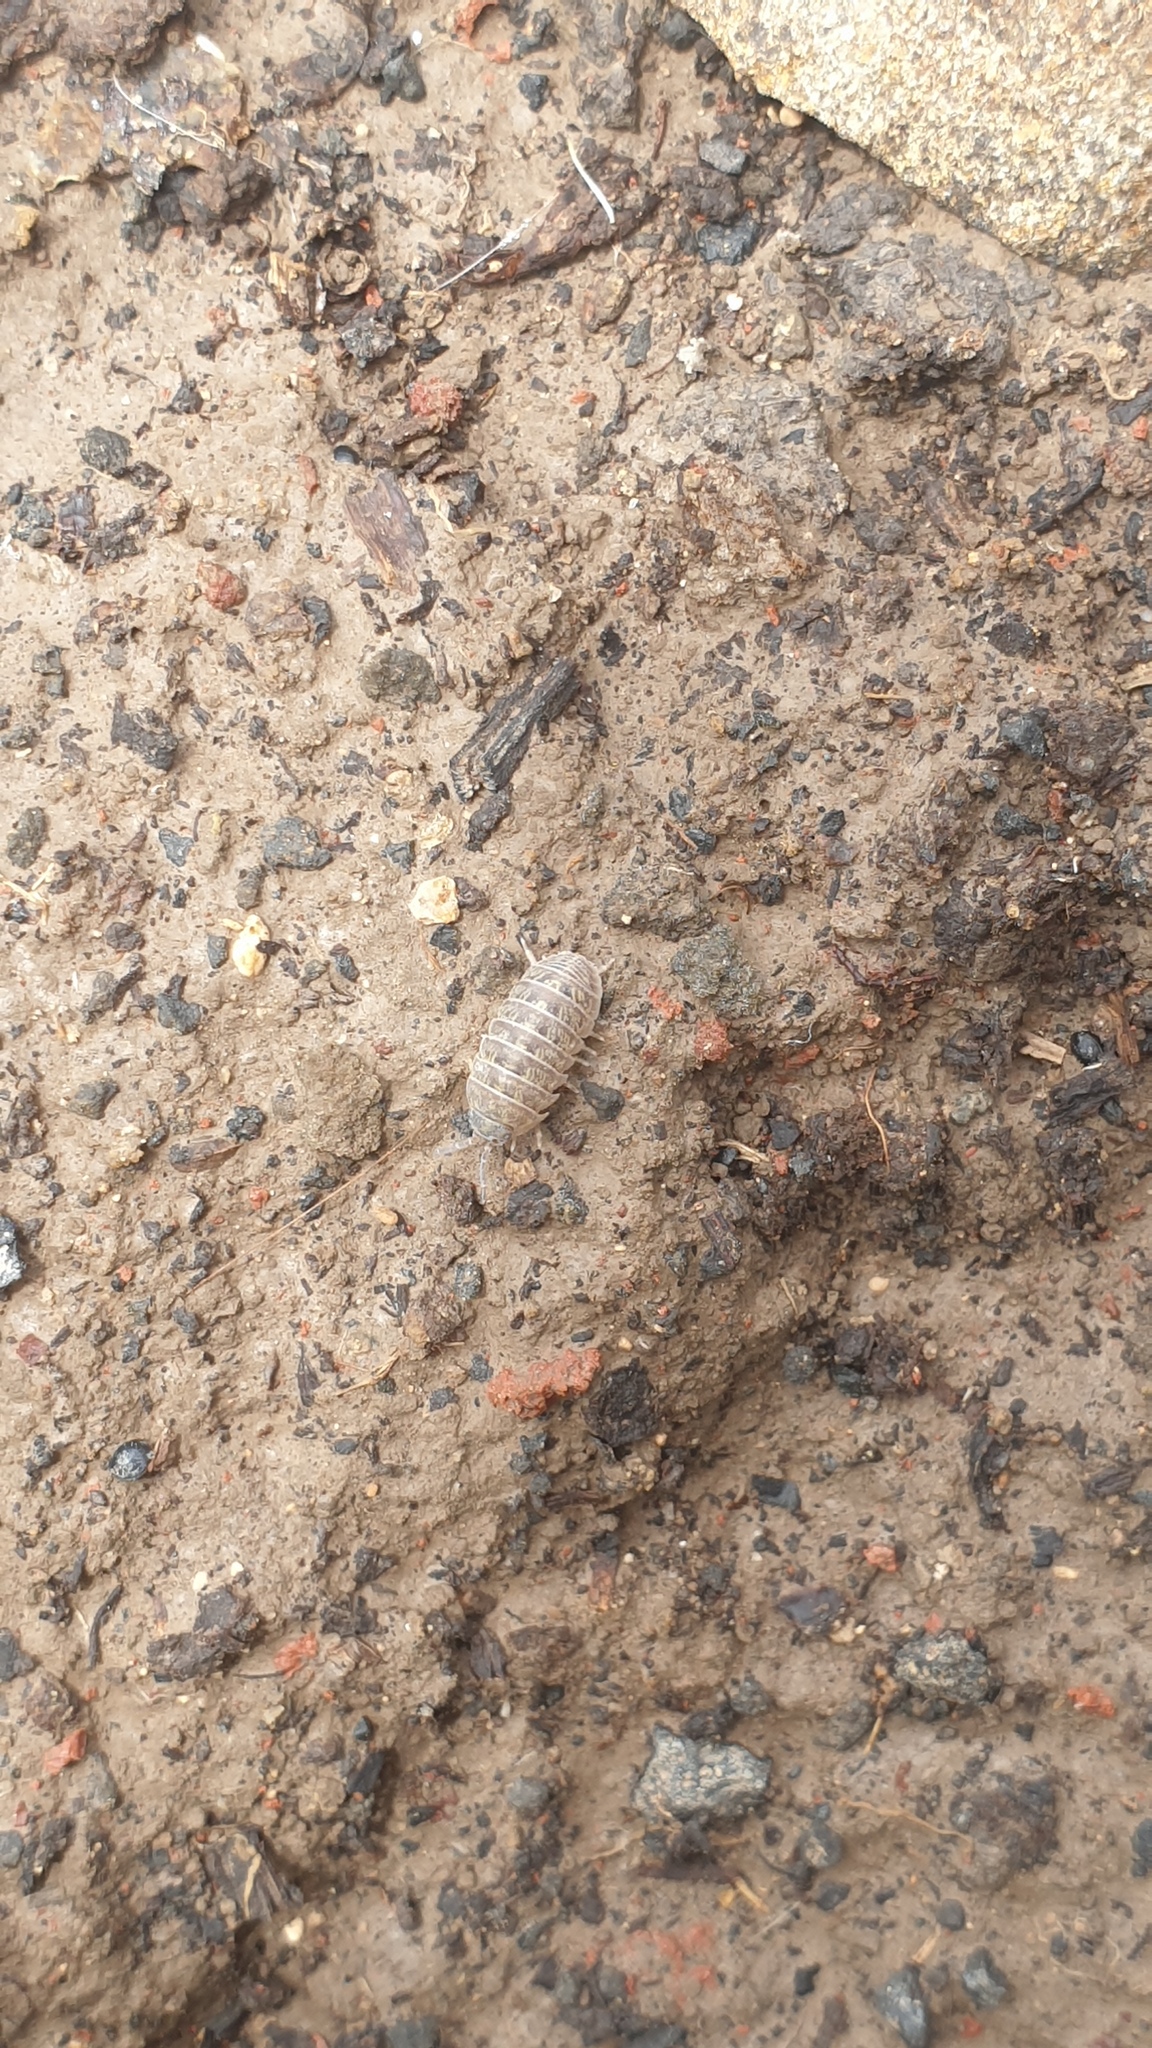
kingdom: Animalia
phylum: Arthropoda
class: Malacostraca
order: Isopoda
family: Armadillidiidae
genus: Armadillidium
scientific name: Armadillidium vulgare
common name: Common pill woodlouse
